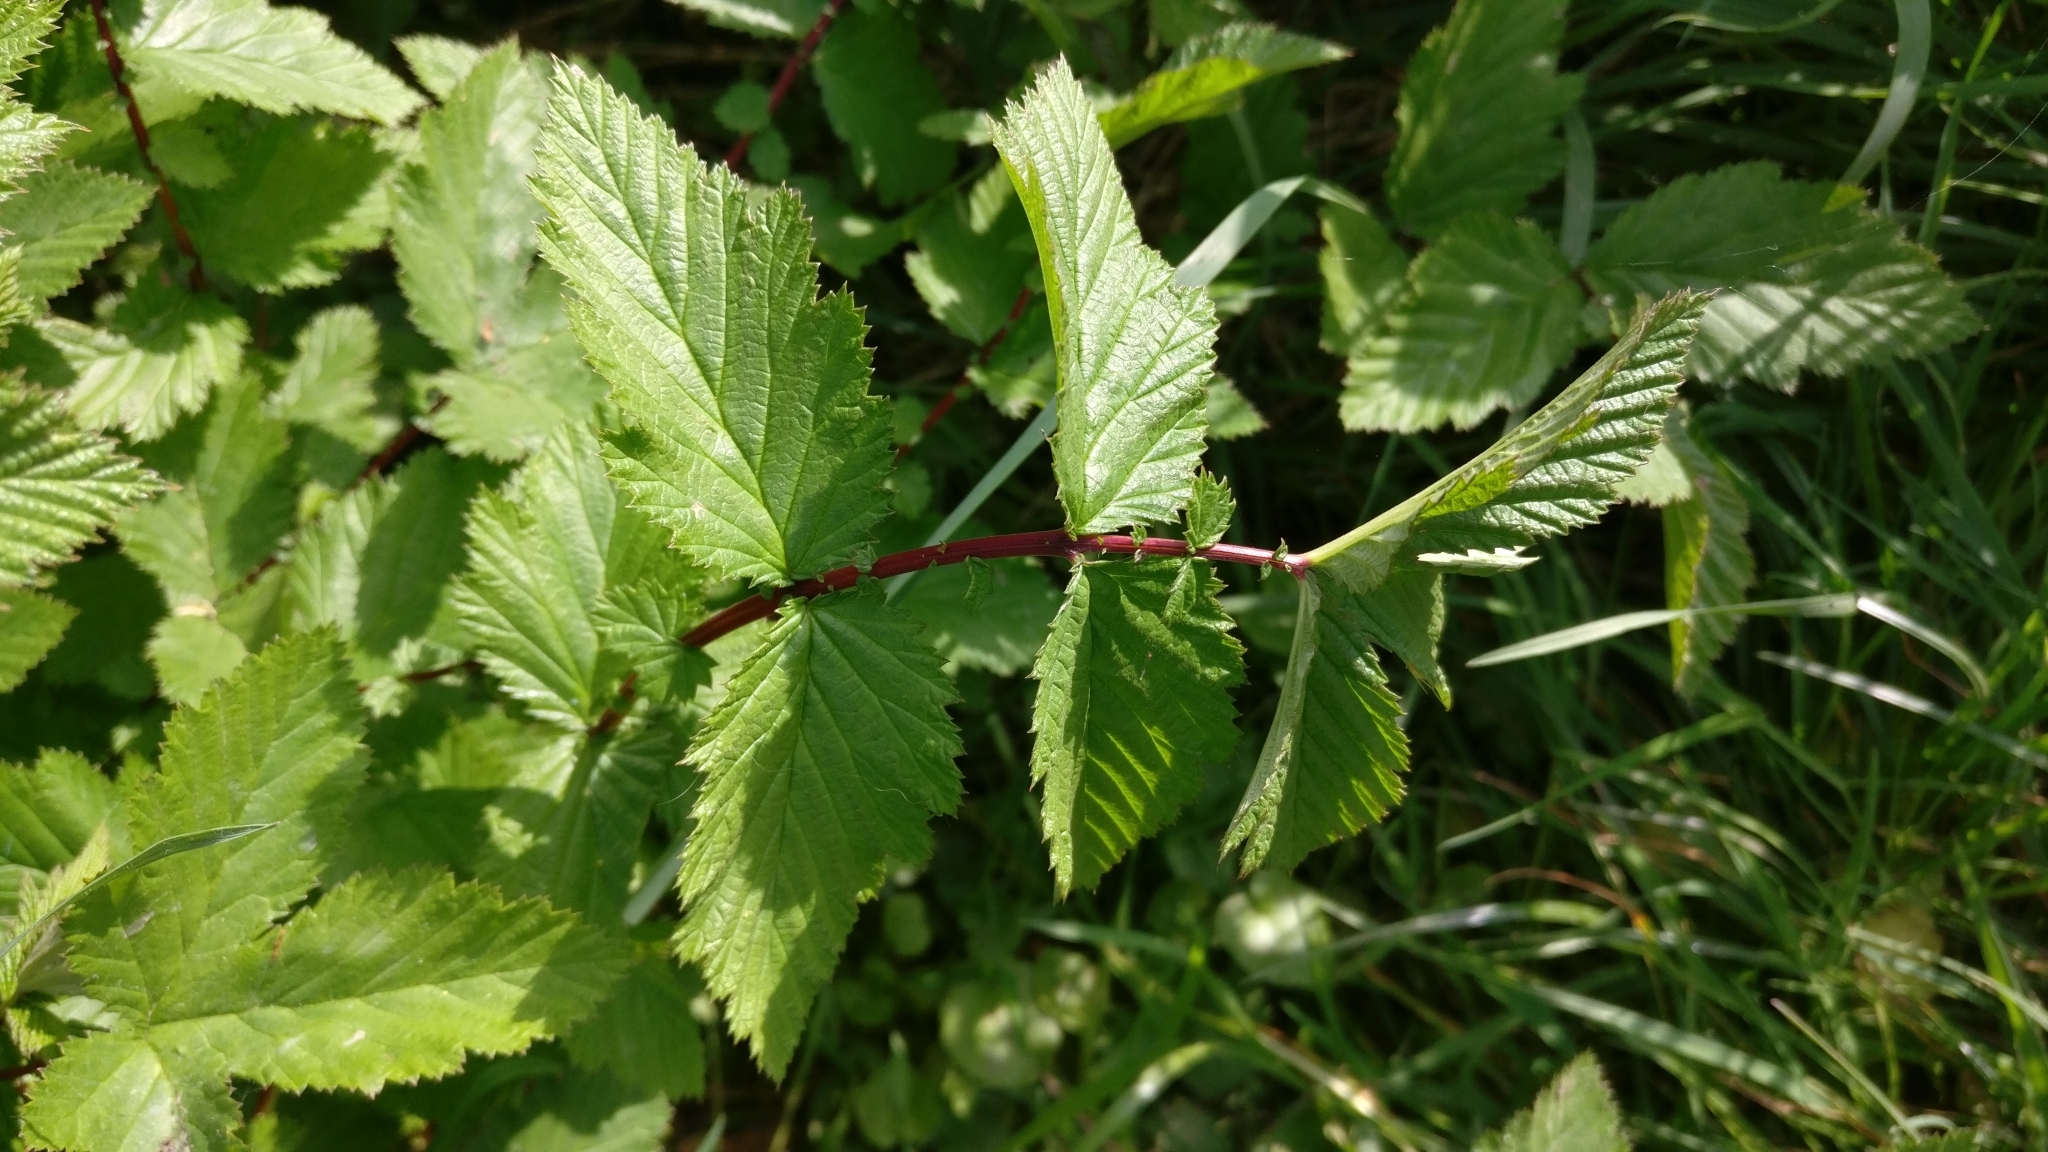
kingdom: Plantae
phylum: Tracheophyta
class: Magnoliopsida
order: Rosales
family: Rosaceae
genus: Filipendula
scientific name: Filipendula ulmaria
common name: Meadowsweet
